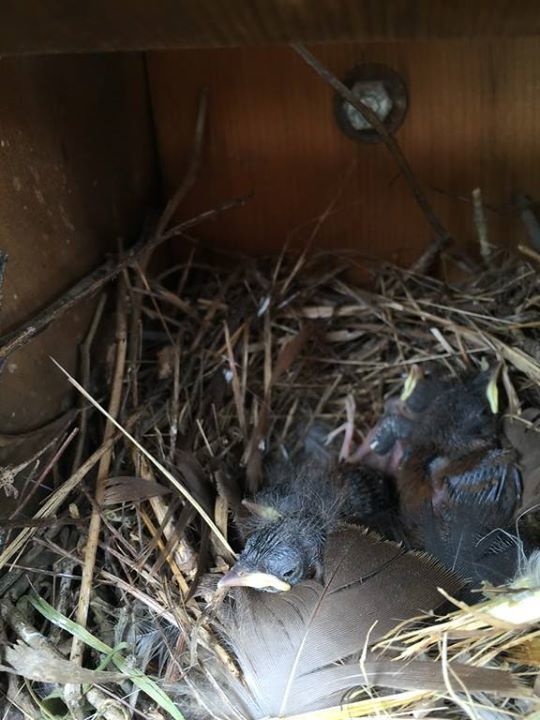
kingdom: Animalia
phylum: Chordata
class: Aves
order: Passeriformes
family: Troglodytidae
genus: Troglodytes
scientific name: Troglodytes aedon
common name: House wren
